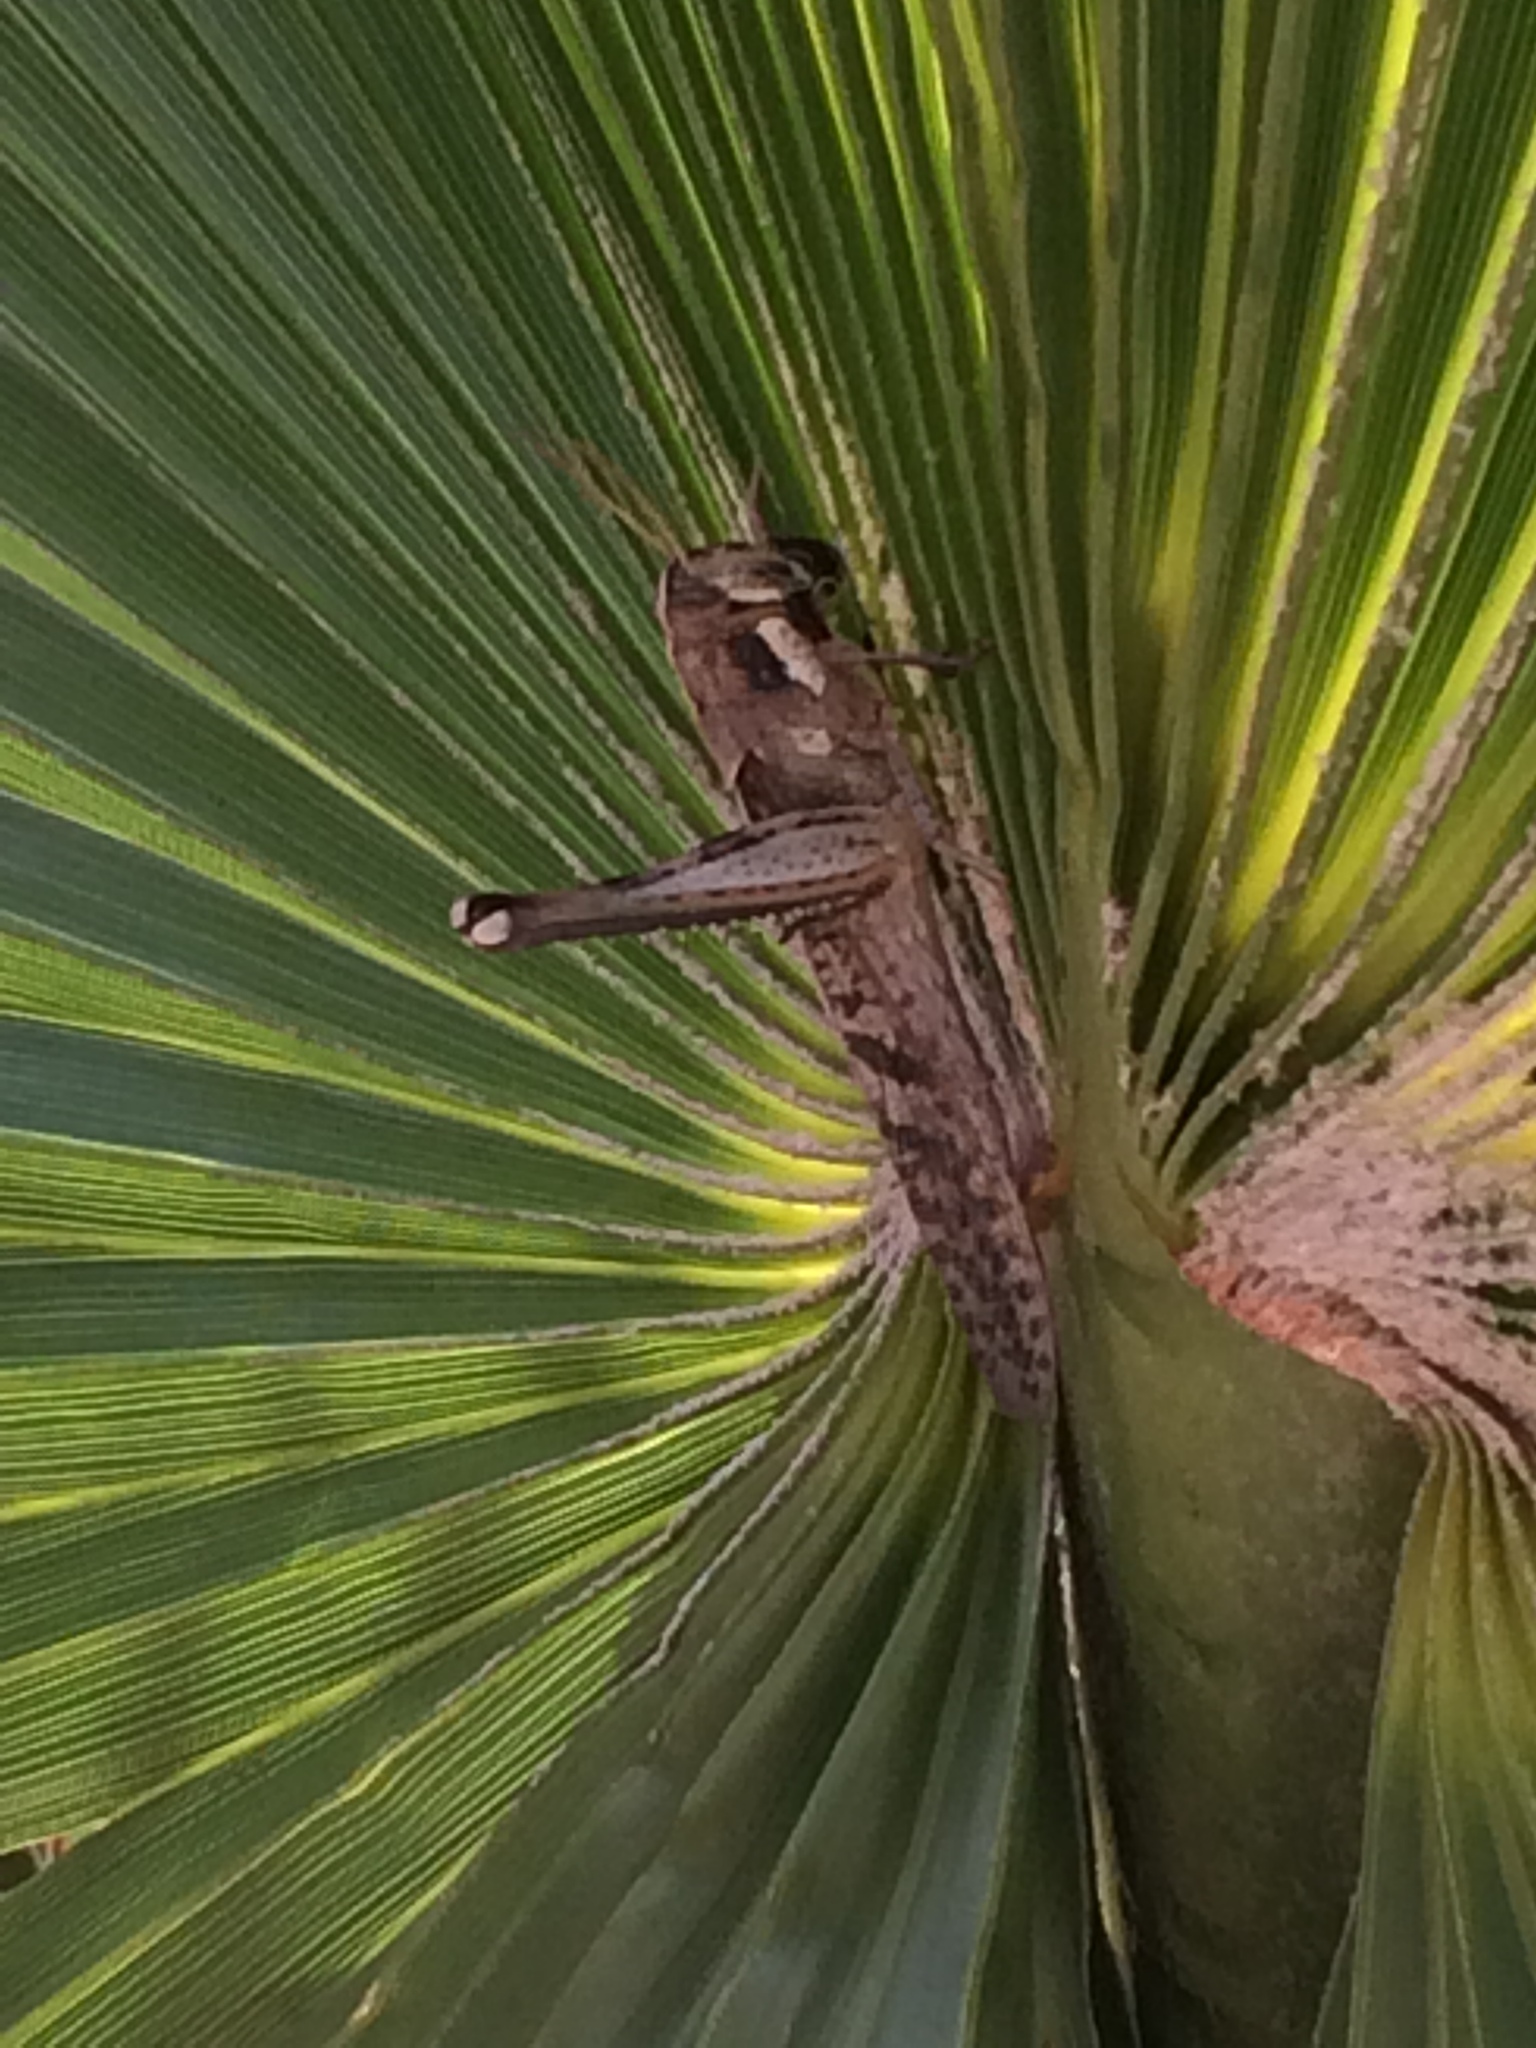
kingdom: Animalia
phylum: Arthropoda
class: Insecta
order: Orthoptera
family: Acrididae
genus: Schistocerca
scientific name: Schistocerca nitens
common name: Vagrant grasshopper
